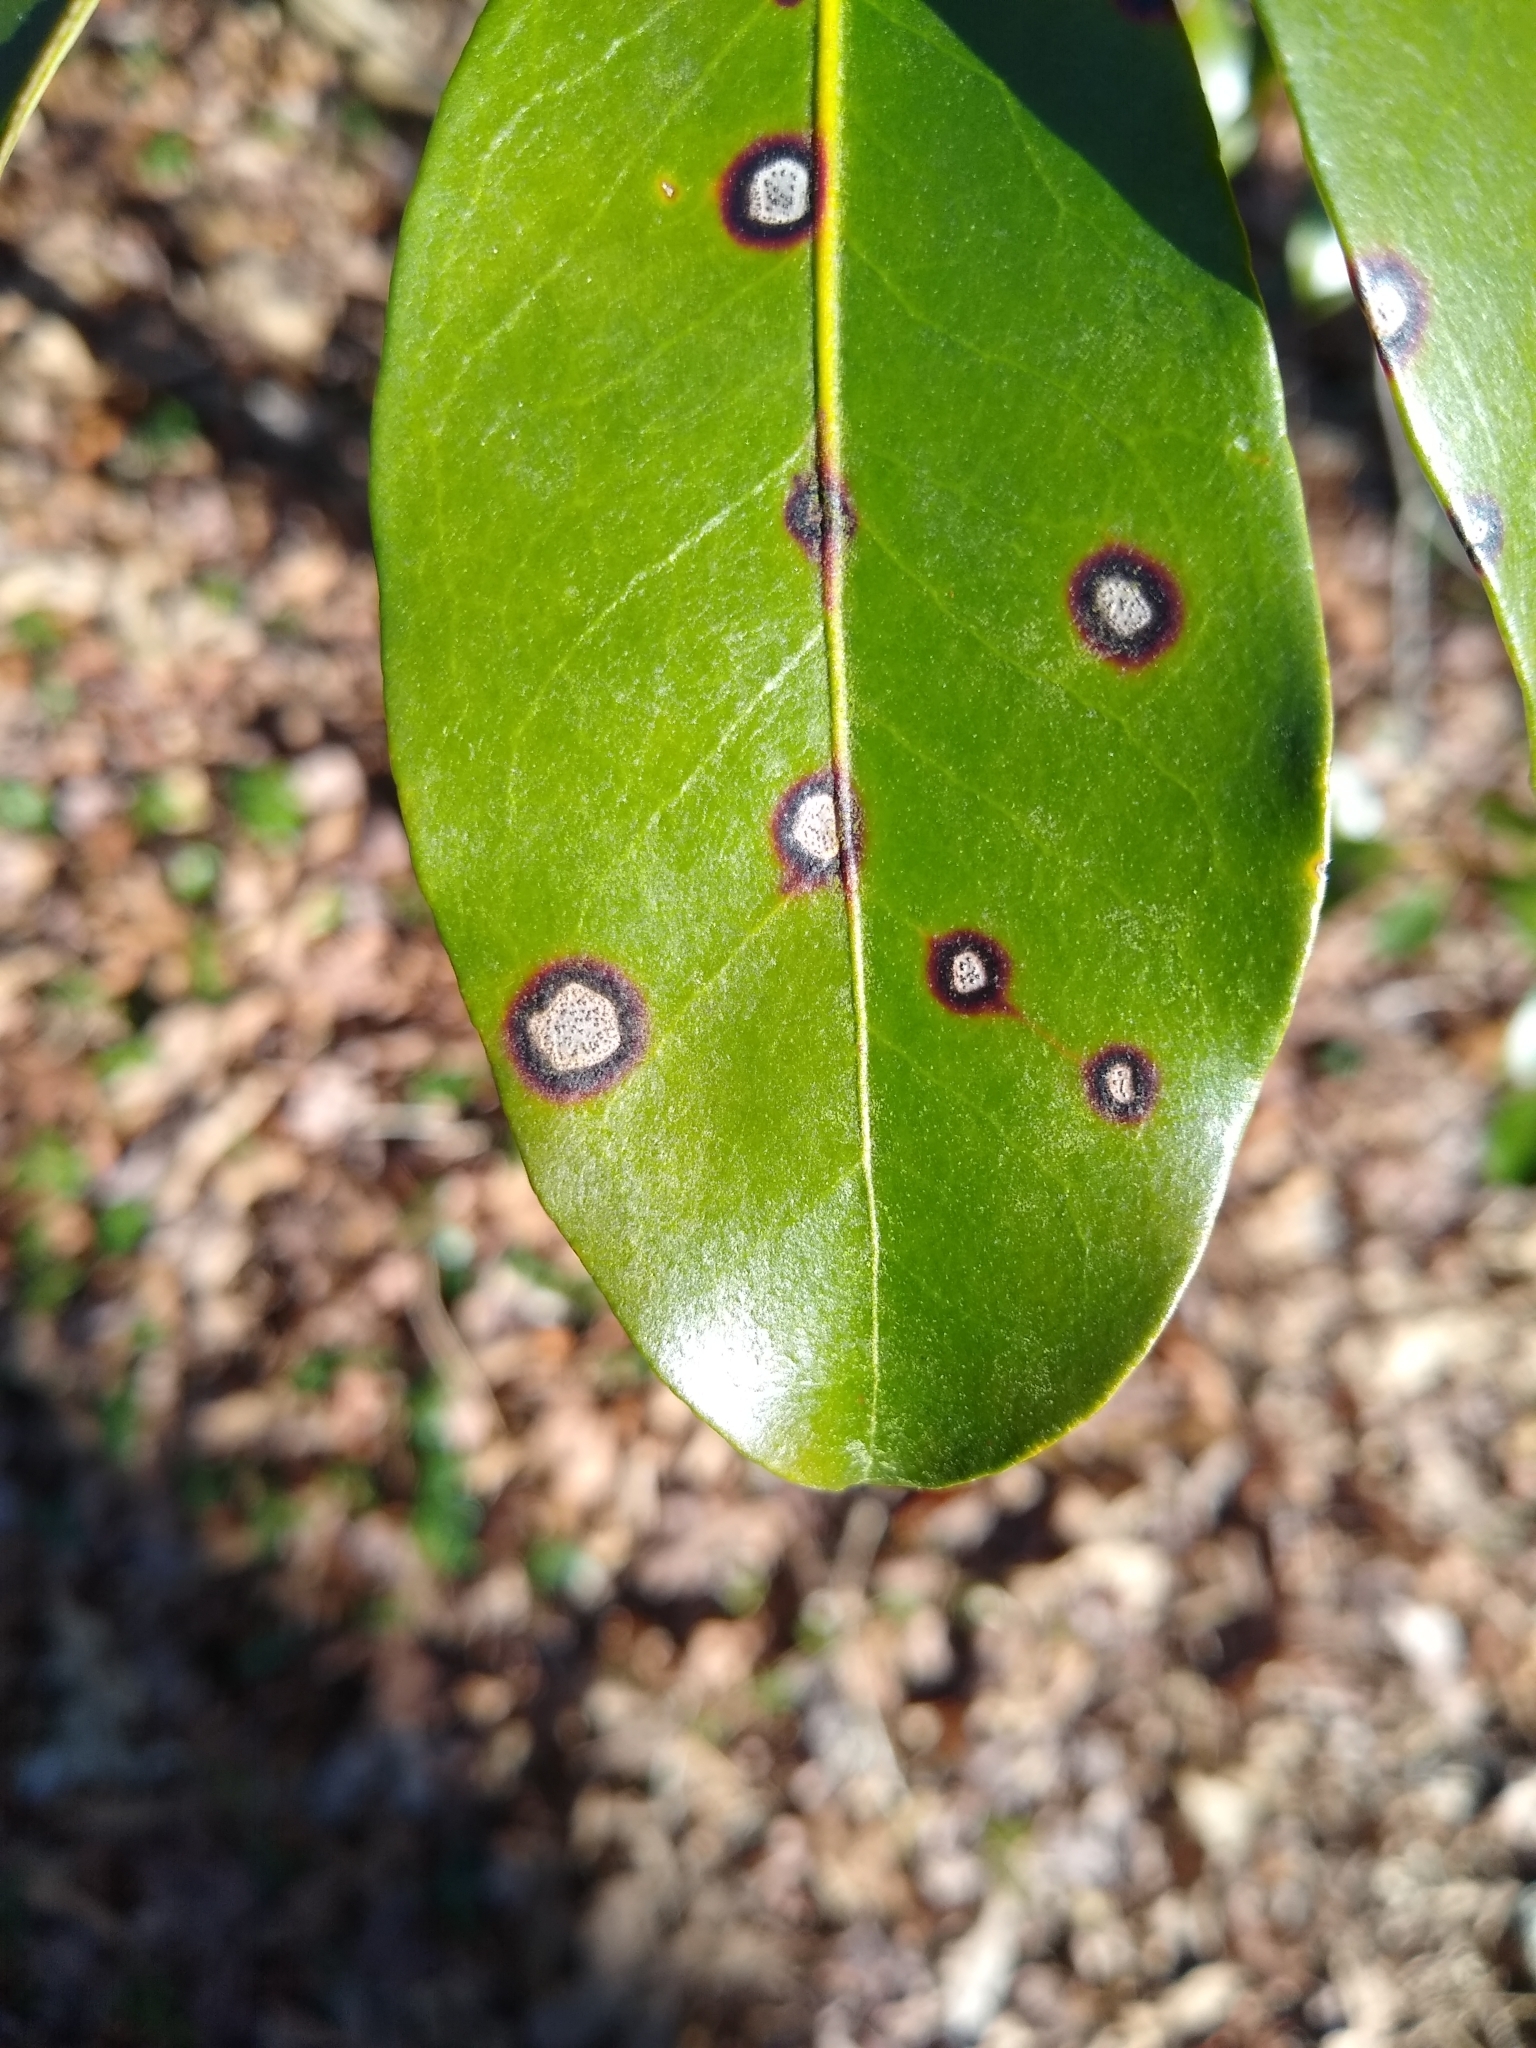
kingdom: Fungi
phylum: Ascomycota
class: Dothideomycetes
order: Mycosphaerellales
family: Mycosphaerellaceae
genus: Mycosphaerella
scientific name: Mycosphaerella colorata
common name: Mountain laurel leaf spot
